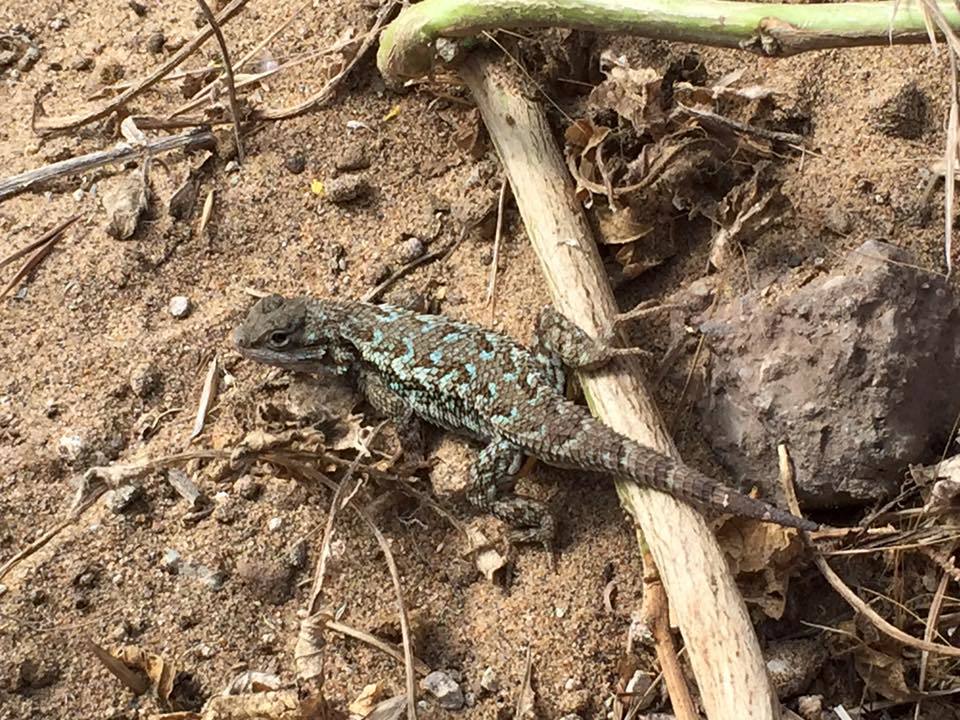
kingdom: Animalia
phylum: Chordata
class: Squamata
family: Phrynosomatidae
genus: Sceloporus
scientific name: Sceloporus occidentalis
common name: Western fence lizard
